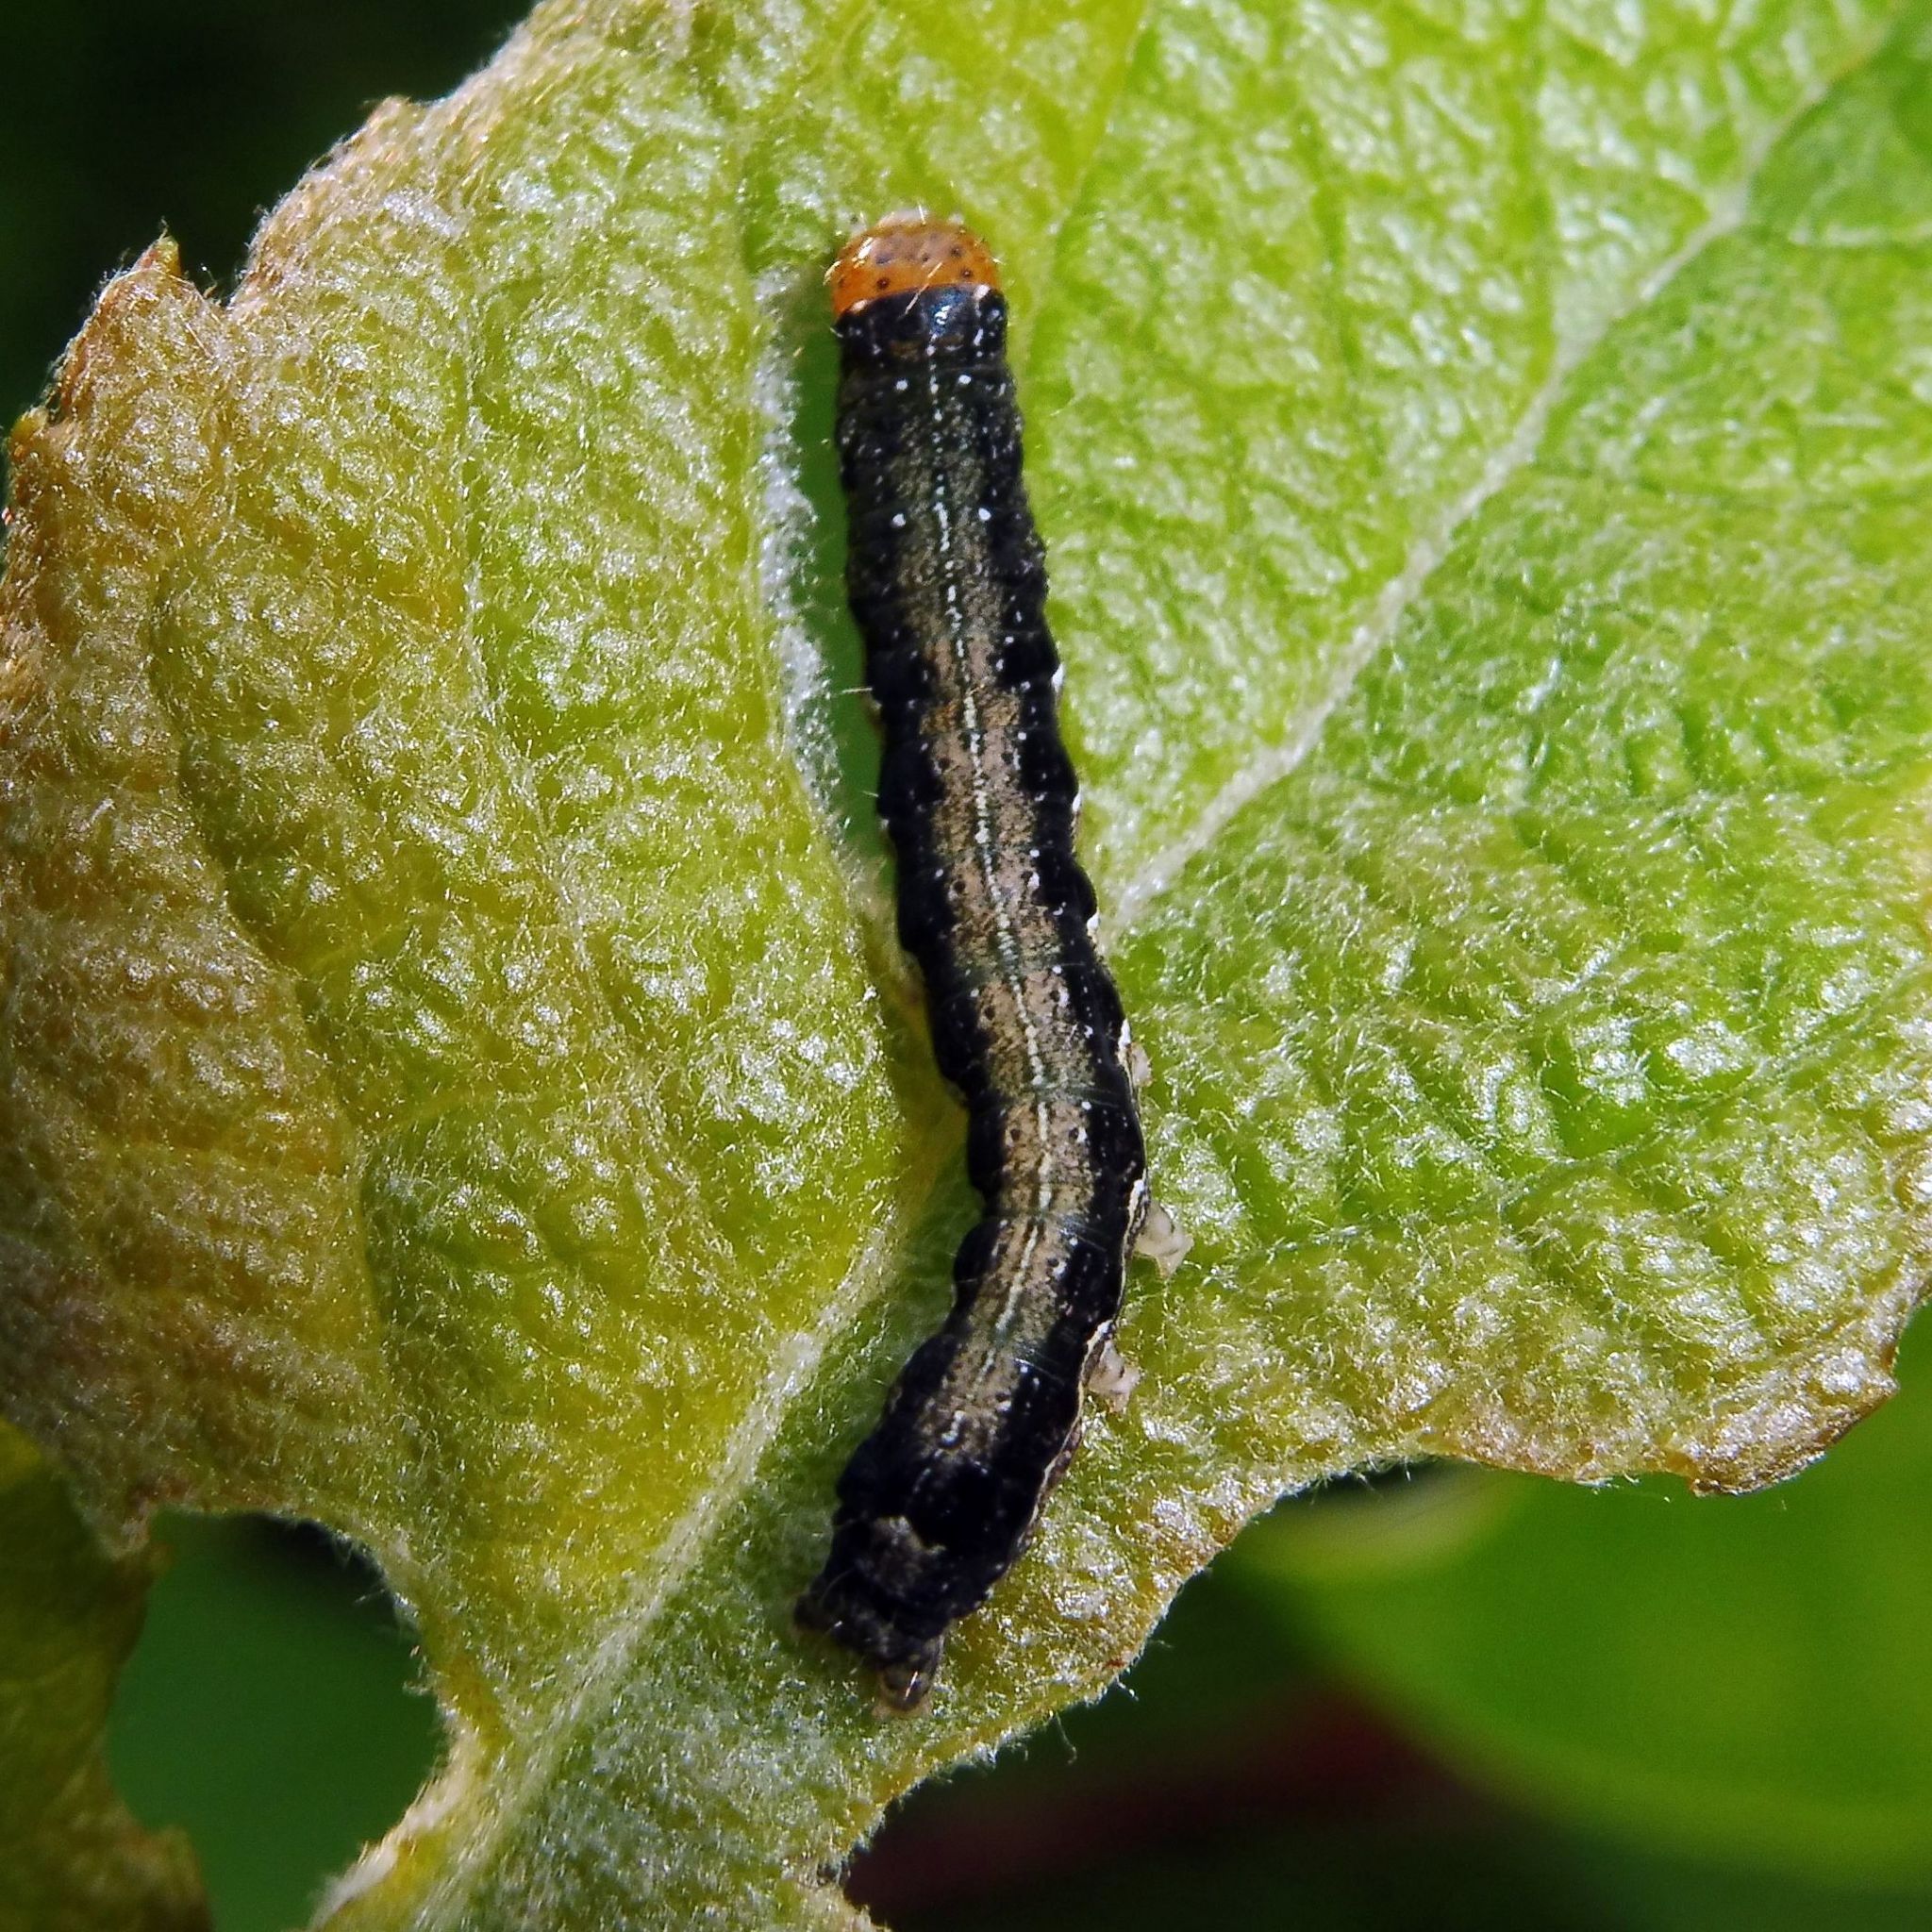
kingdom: Animalia
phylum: Arthropoda
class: Insecta
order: Lepidoptera
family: Noctuidae
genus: Anorthoa
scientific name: Anorthoa munda
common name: Twin-spotted quaker
